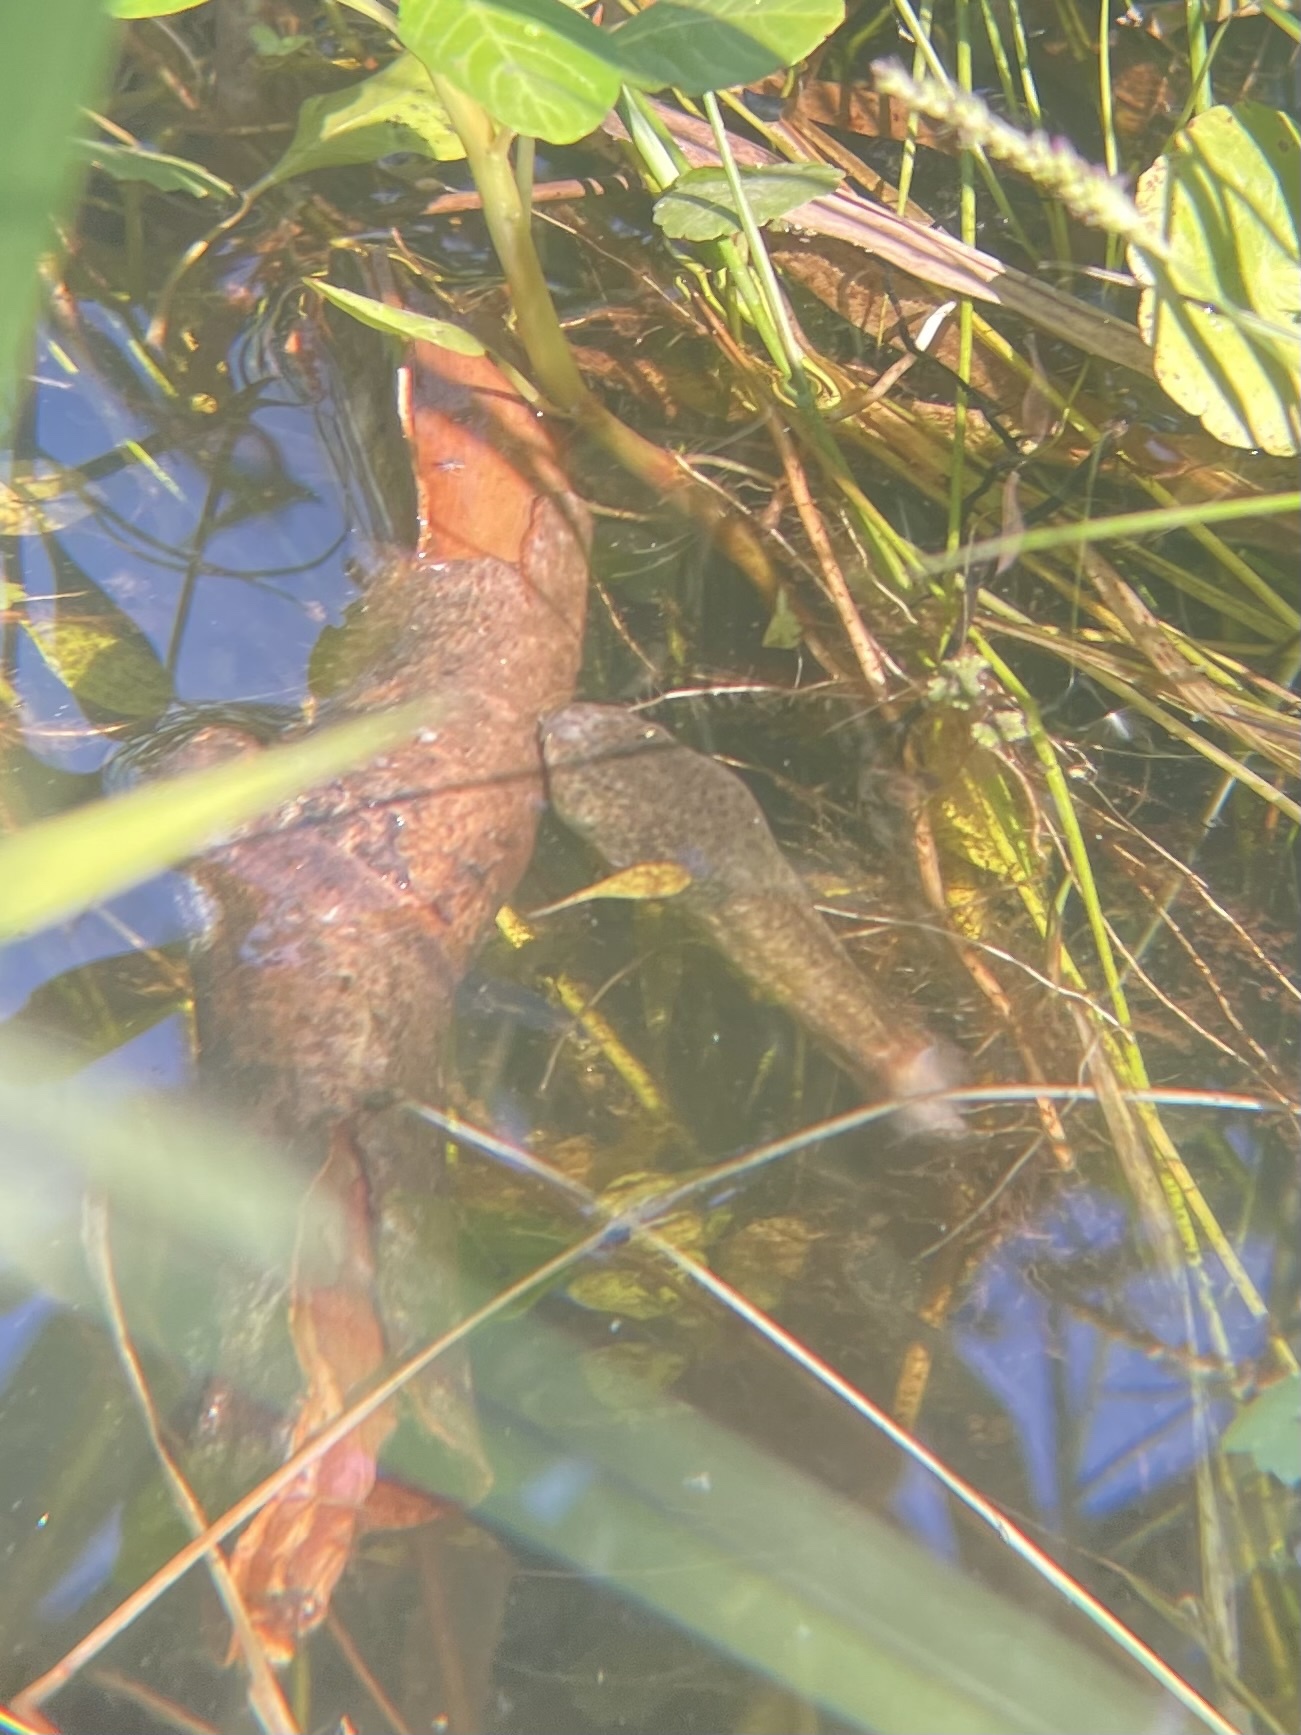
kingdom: Animalia
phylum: Chordata
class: Amphibia
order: Anura
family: Ranidae
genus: Lithobates
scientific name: Lithobates catesbeianus
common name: American bullfrog
